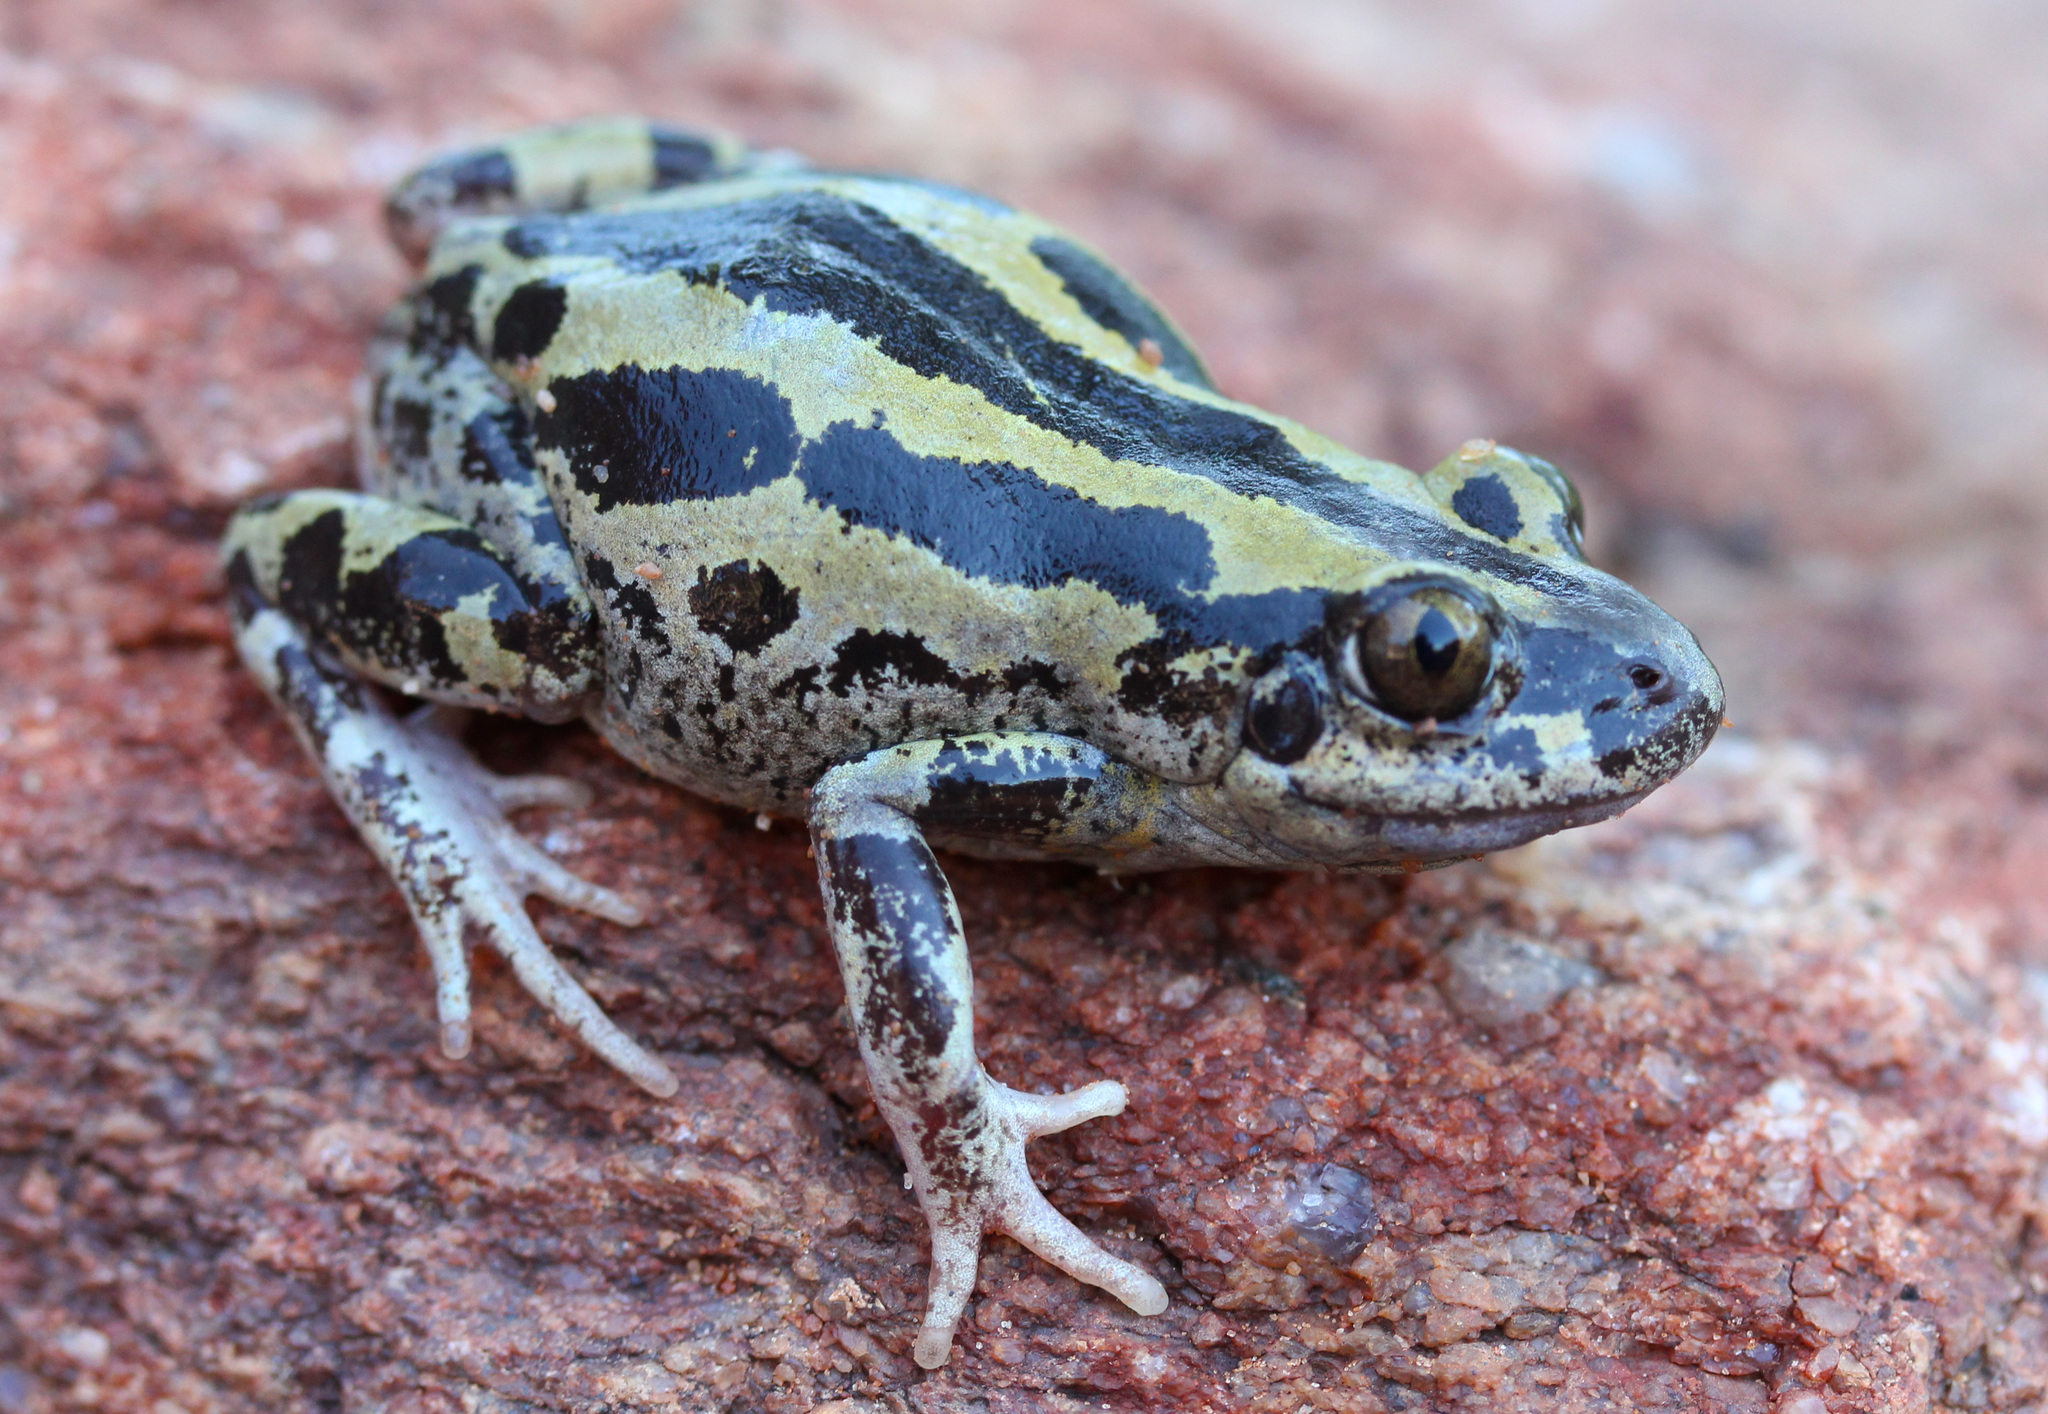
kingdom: Animalia
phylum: Chordata
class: Amphibia
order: Anura
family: Hyperoliidae
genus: Kassina
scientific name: Kassina senegalensis
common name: Senegal land frog
